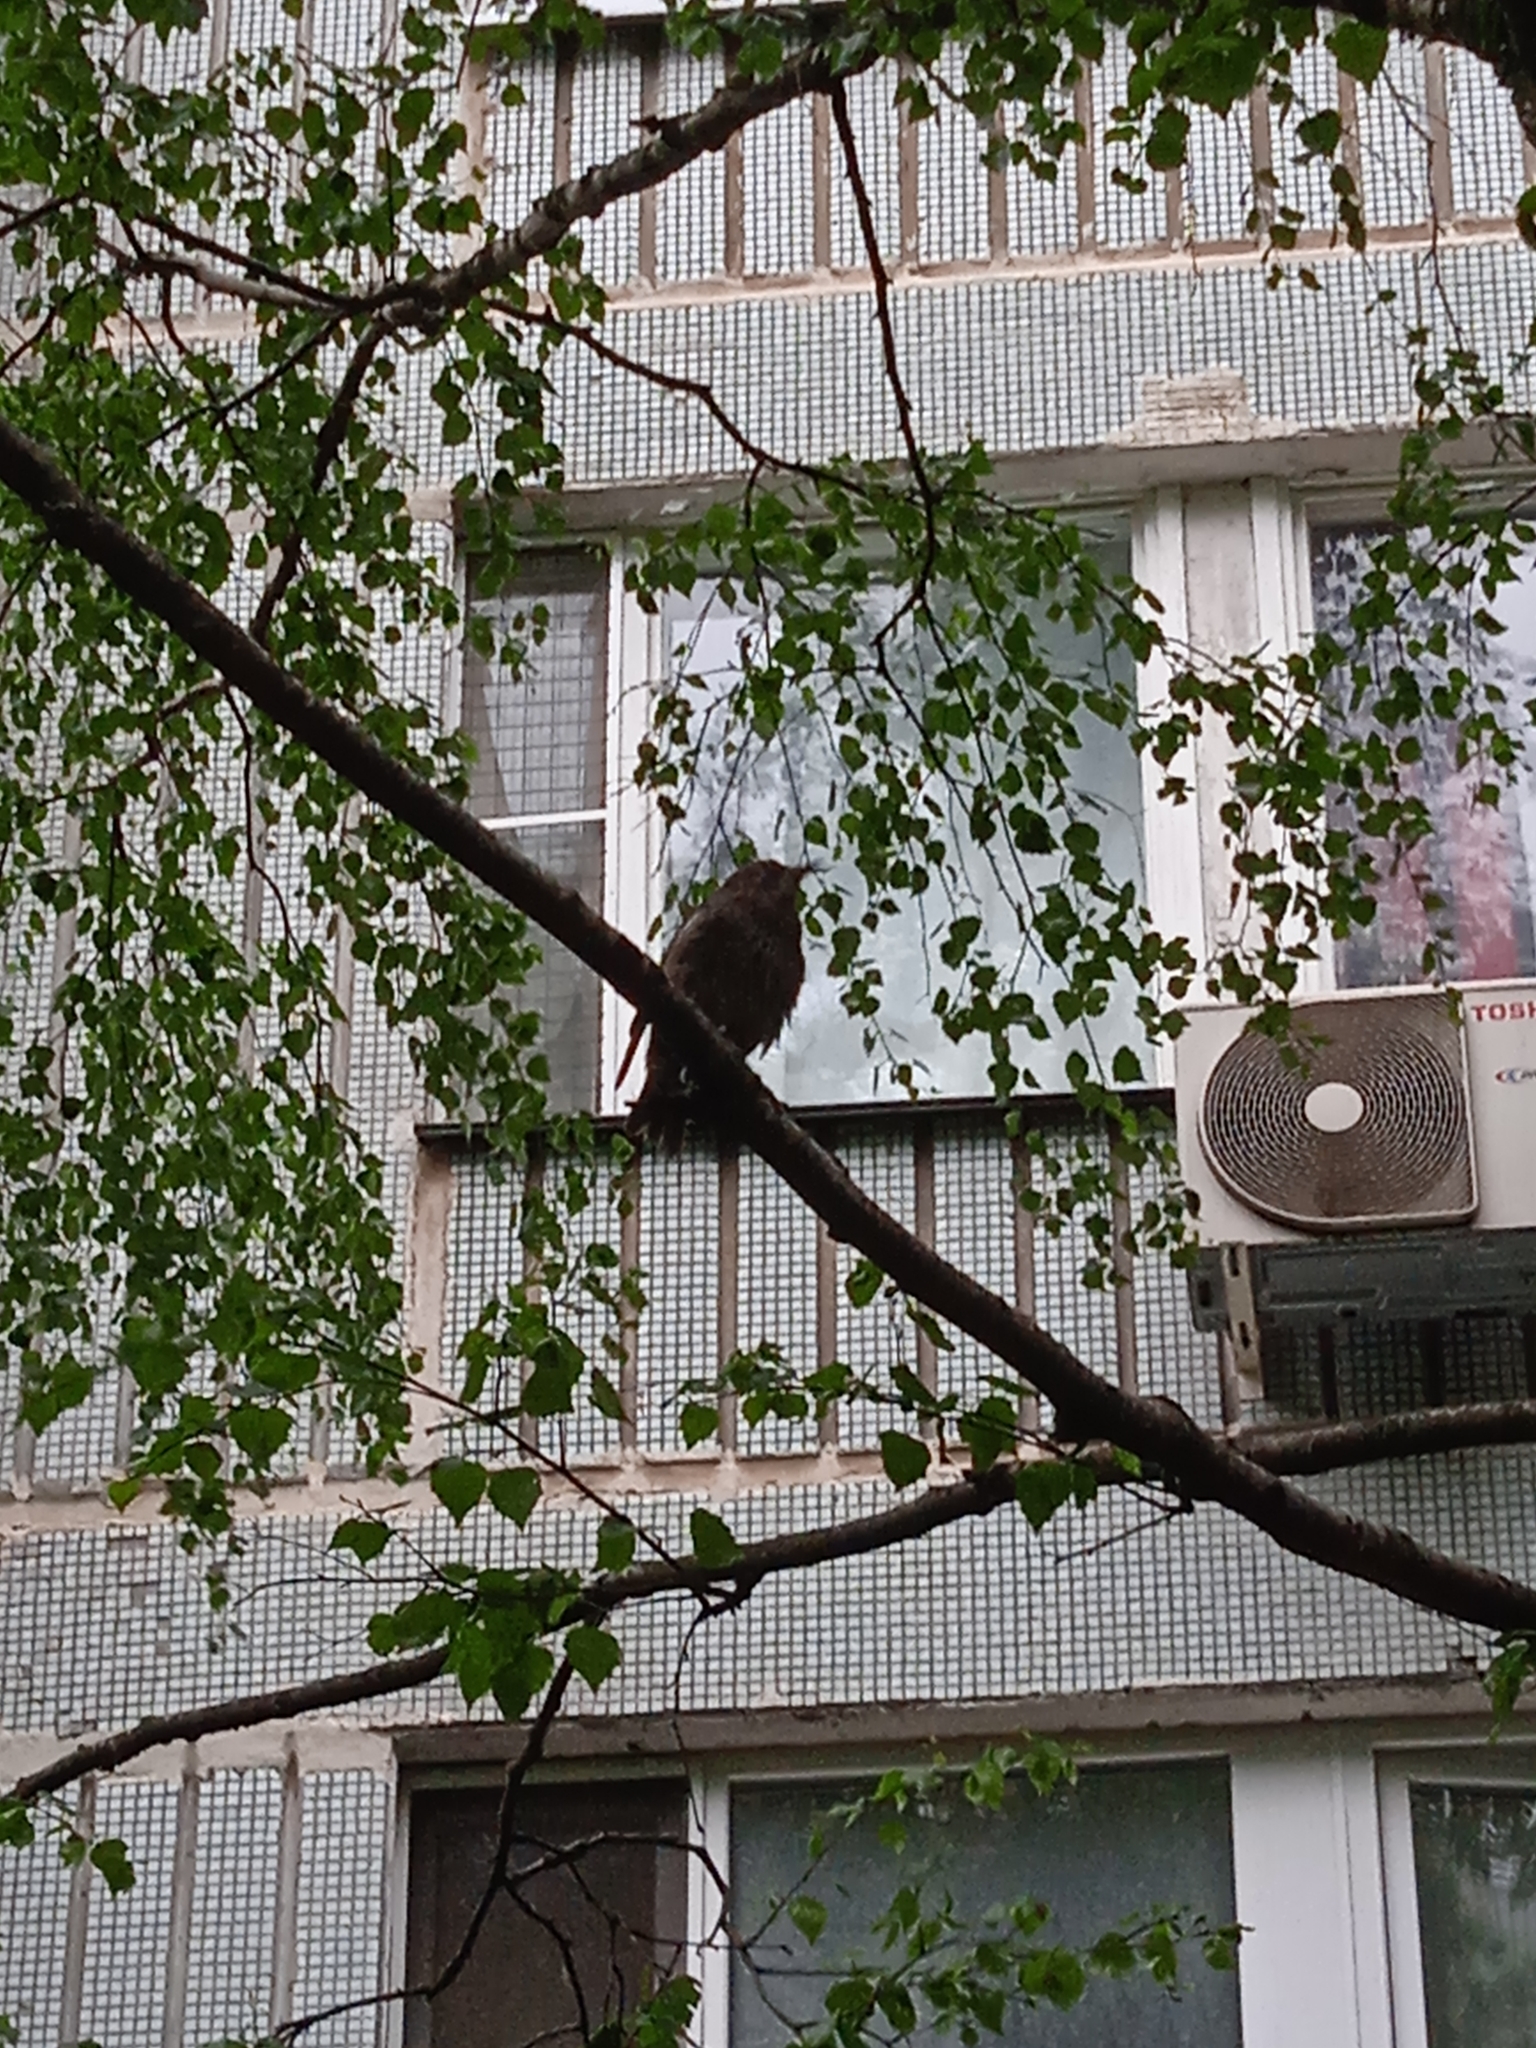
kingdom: Animalia
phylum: Chordata
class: Aves
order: Passeriformes
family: Sturnidae
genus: Sturnus
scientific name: Sturnus vulgaris
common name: Common starling
